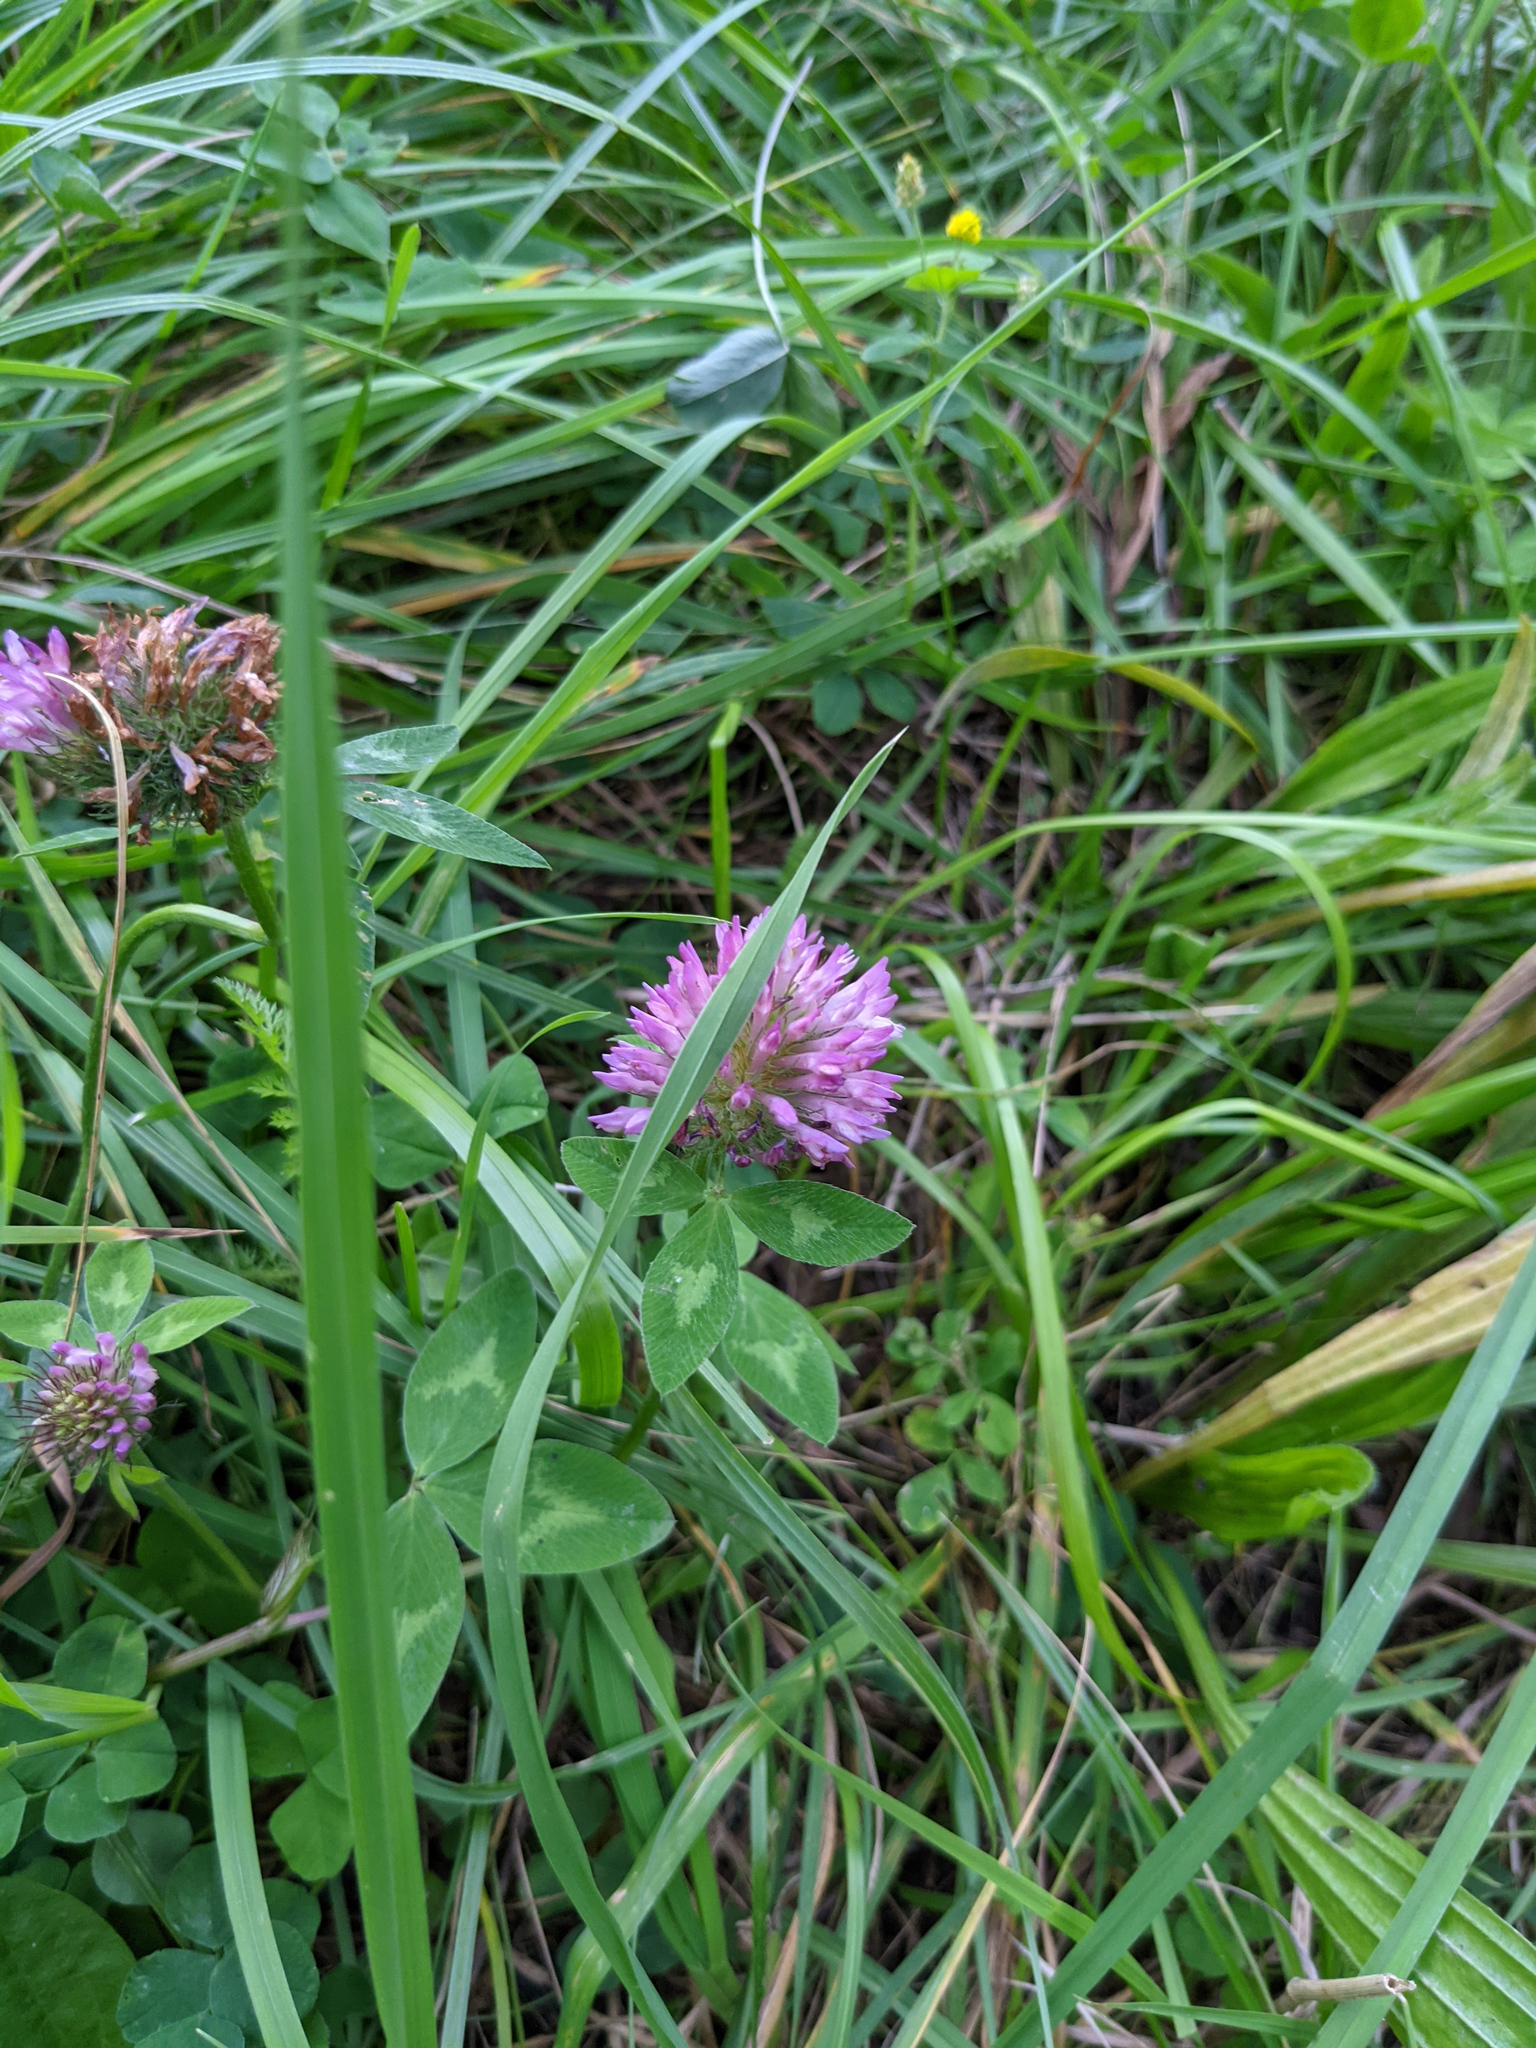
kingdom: Plantae
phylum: Tracheophyta
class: Magnoliopsida
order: Fabales
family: Fabaceae
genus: Trifolium
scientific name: Trifolium pratense
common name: Red clover
